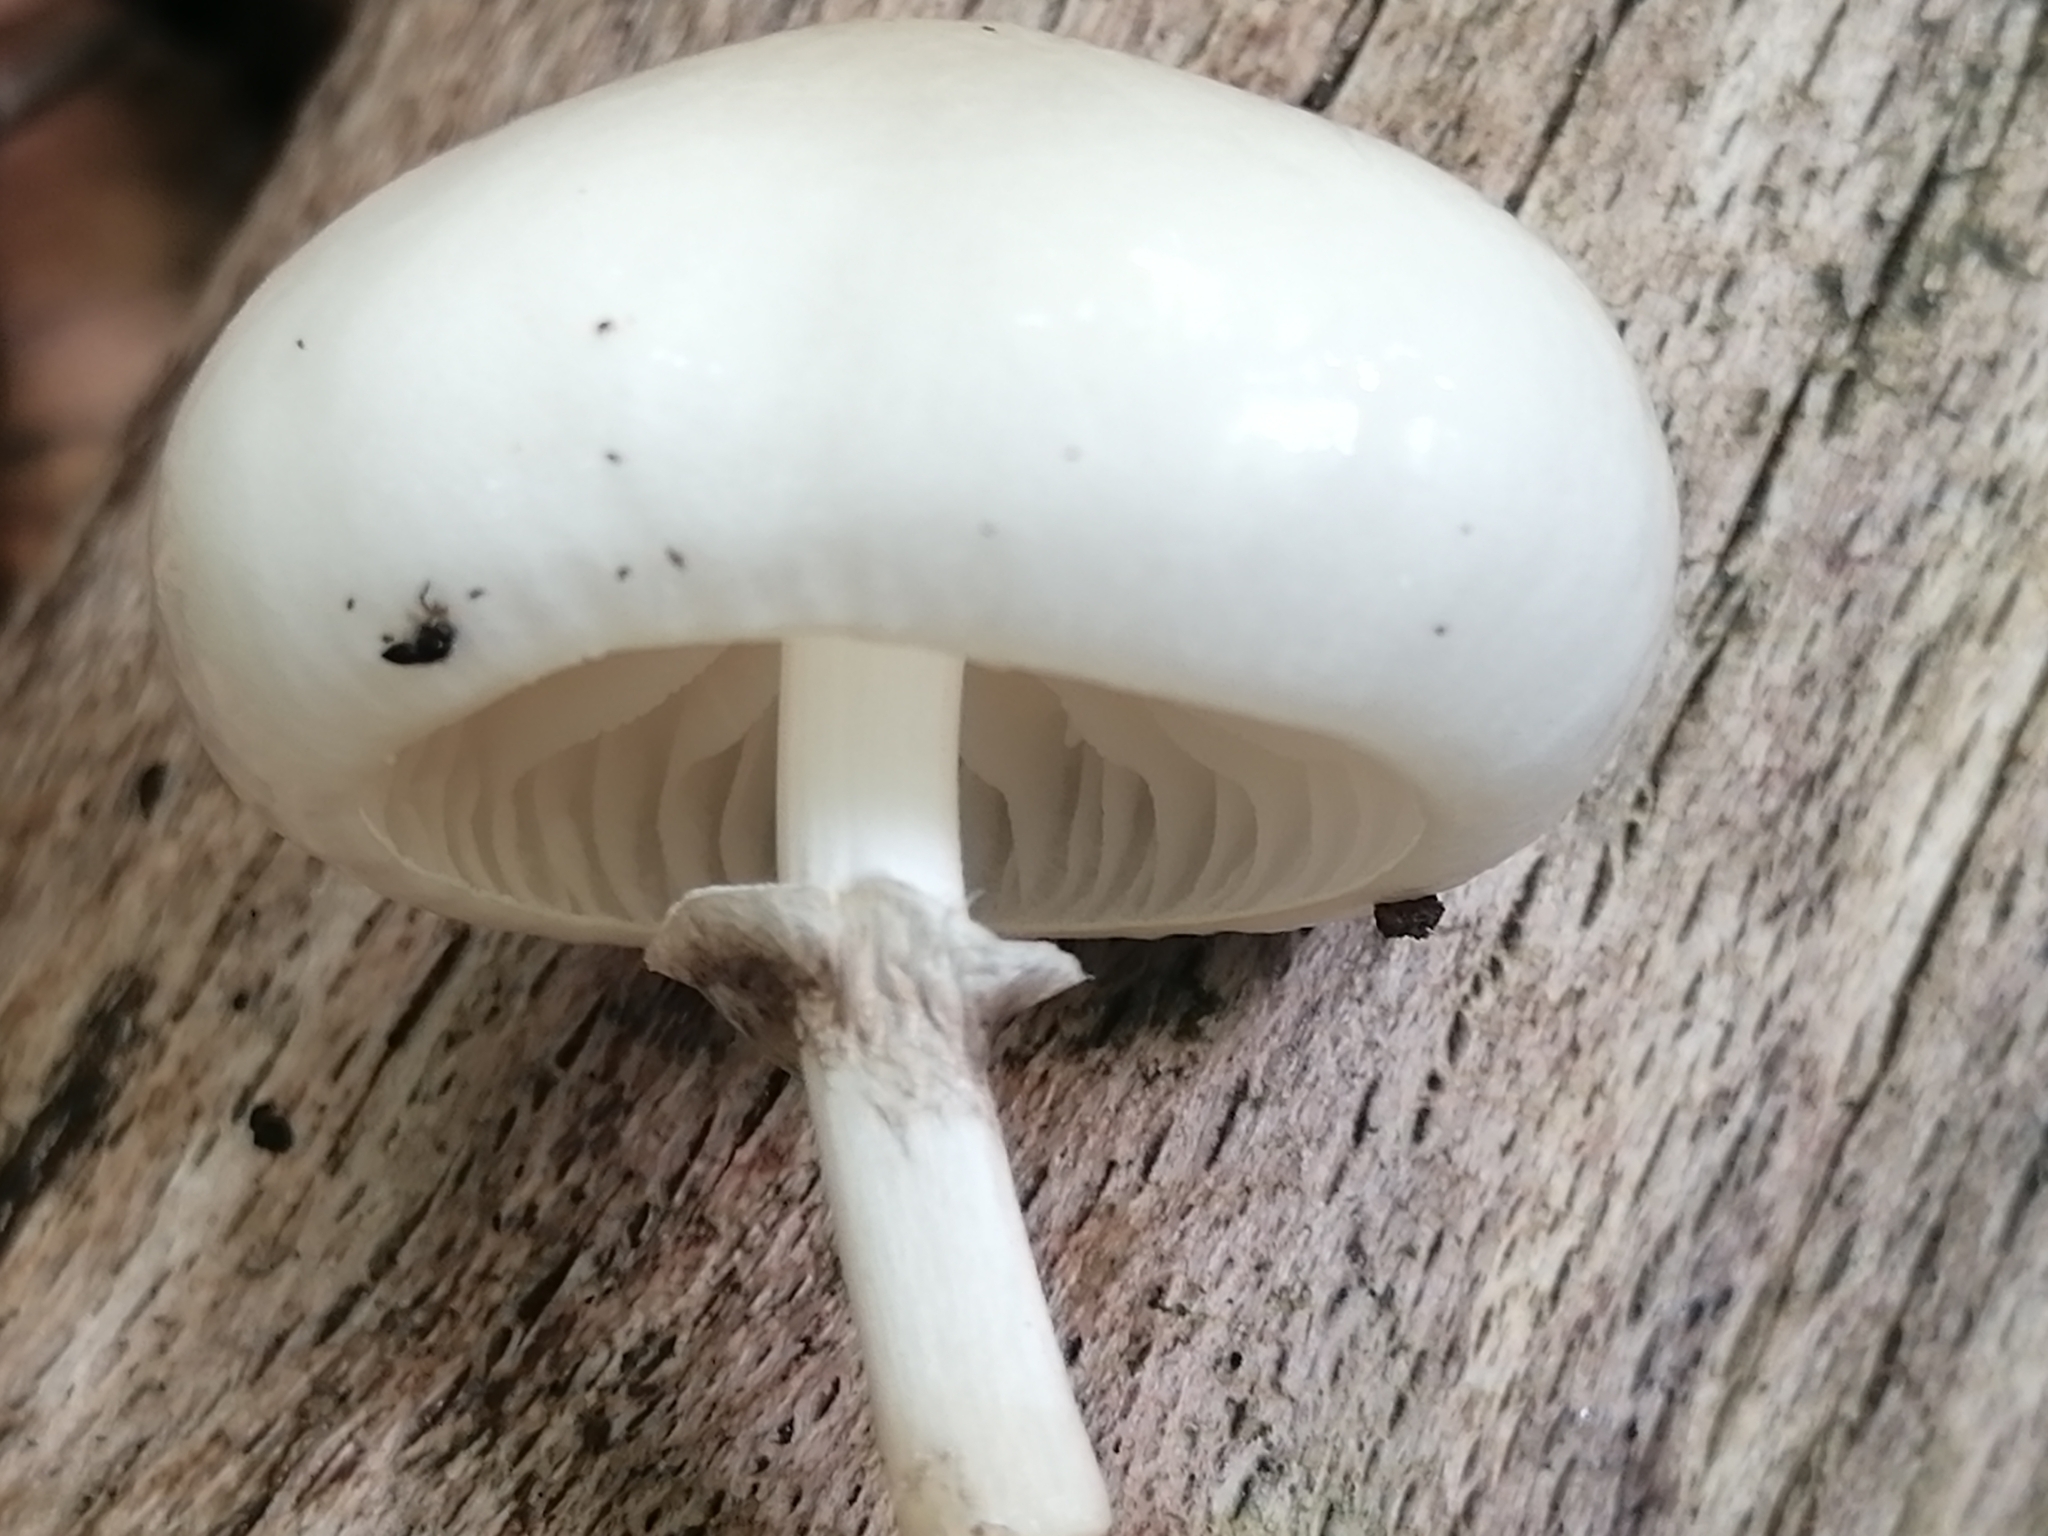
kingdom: Fungi
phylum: Basidiomycota
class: Agaricomycetes
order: Agaricales
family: Physalacriaceae
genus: Mucidula
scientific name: Mucidula mucida
